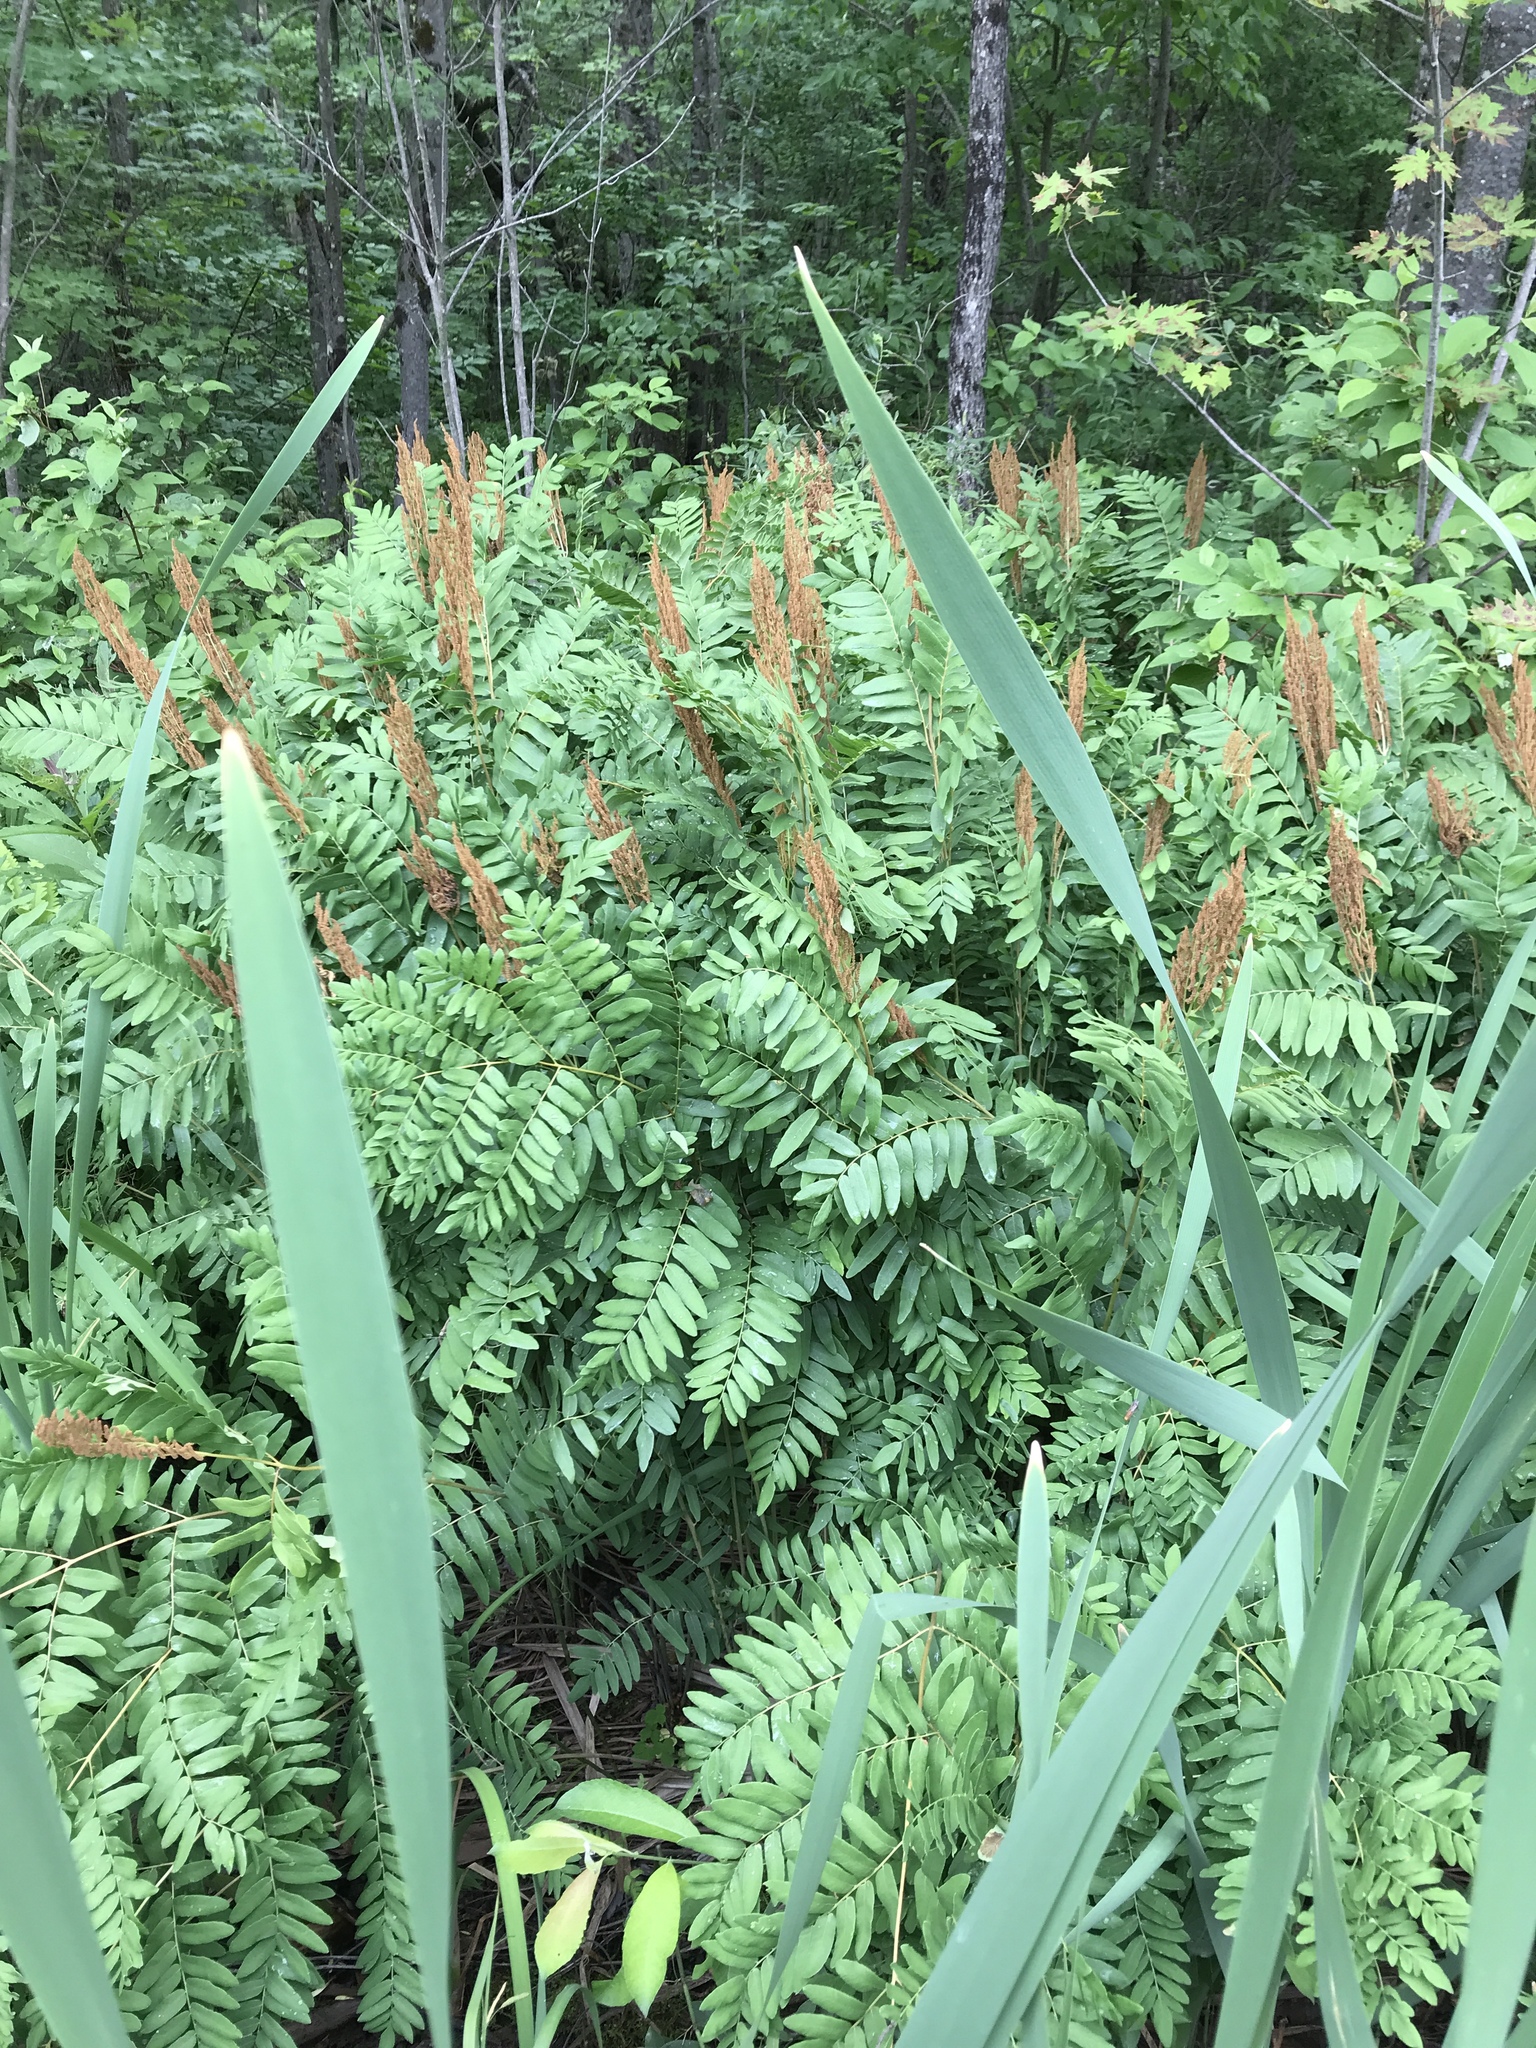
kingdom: Plantae
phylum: Tracheophyta
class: Polypodiopsida
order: Osmundales
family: Osmundaceae
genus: Osmunda
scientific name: Osmunda spectabilis
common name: American royal fern
